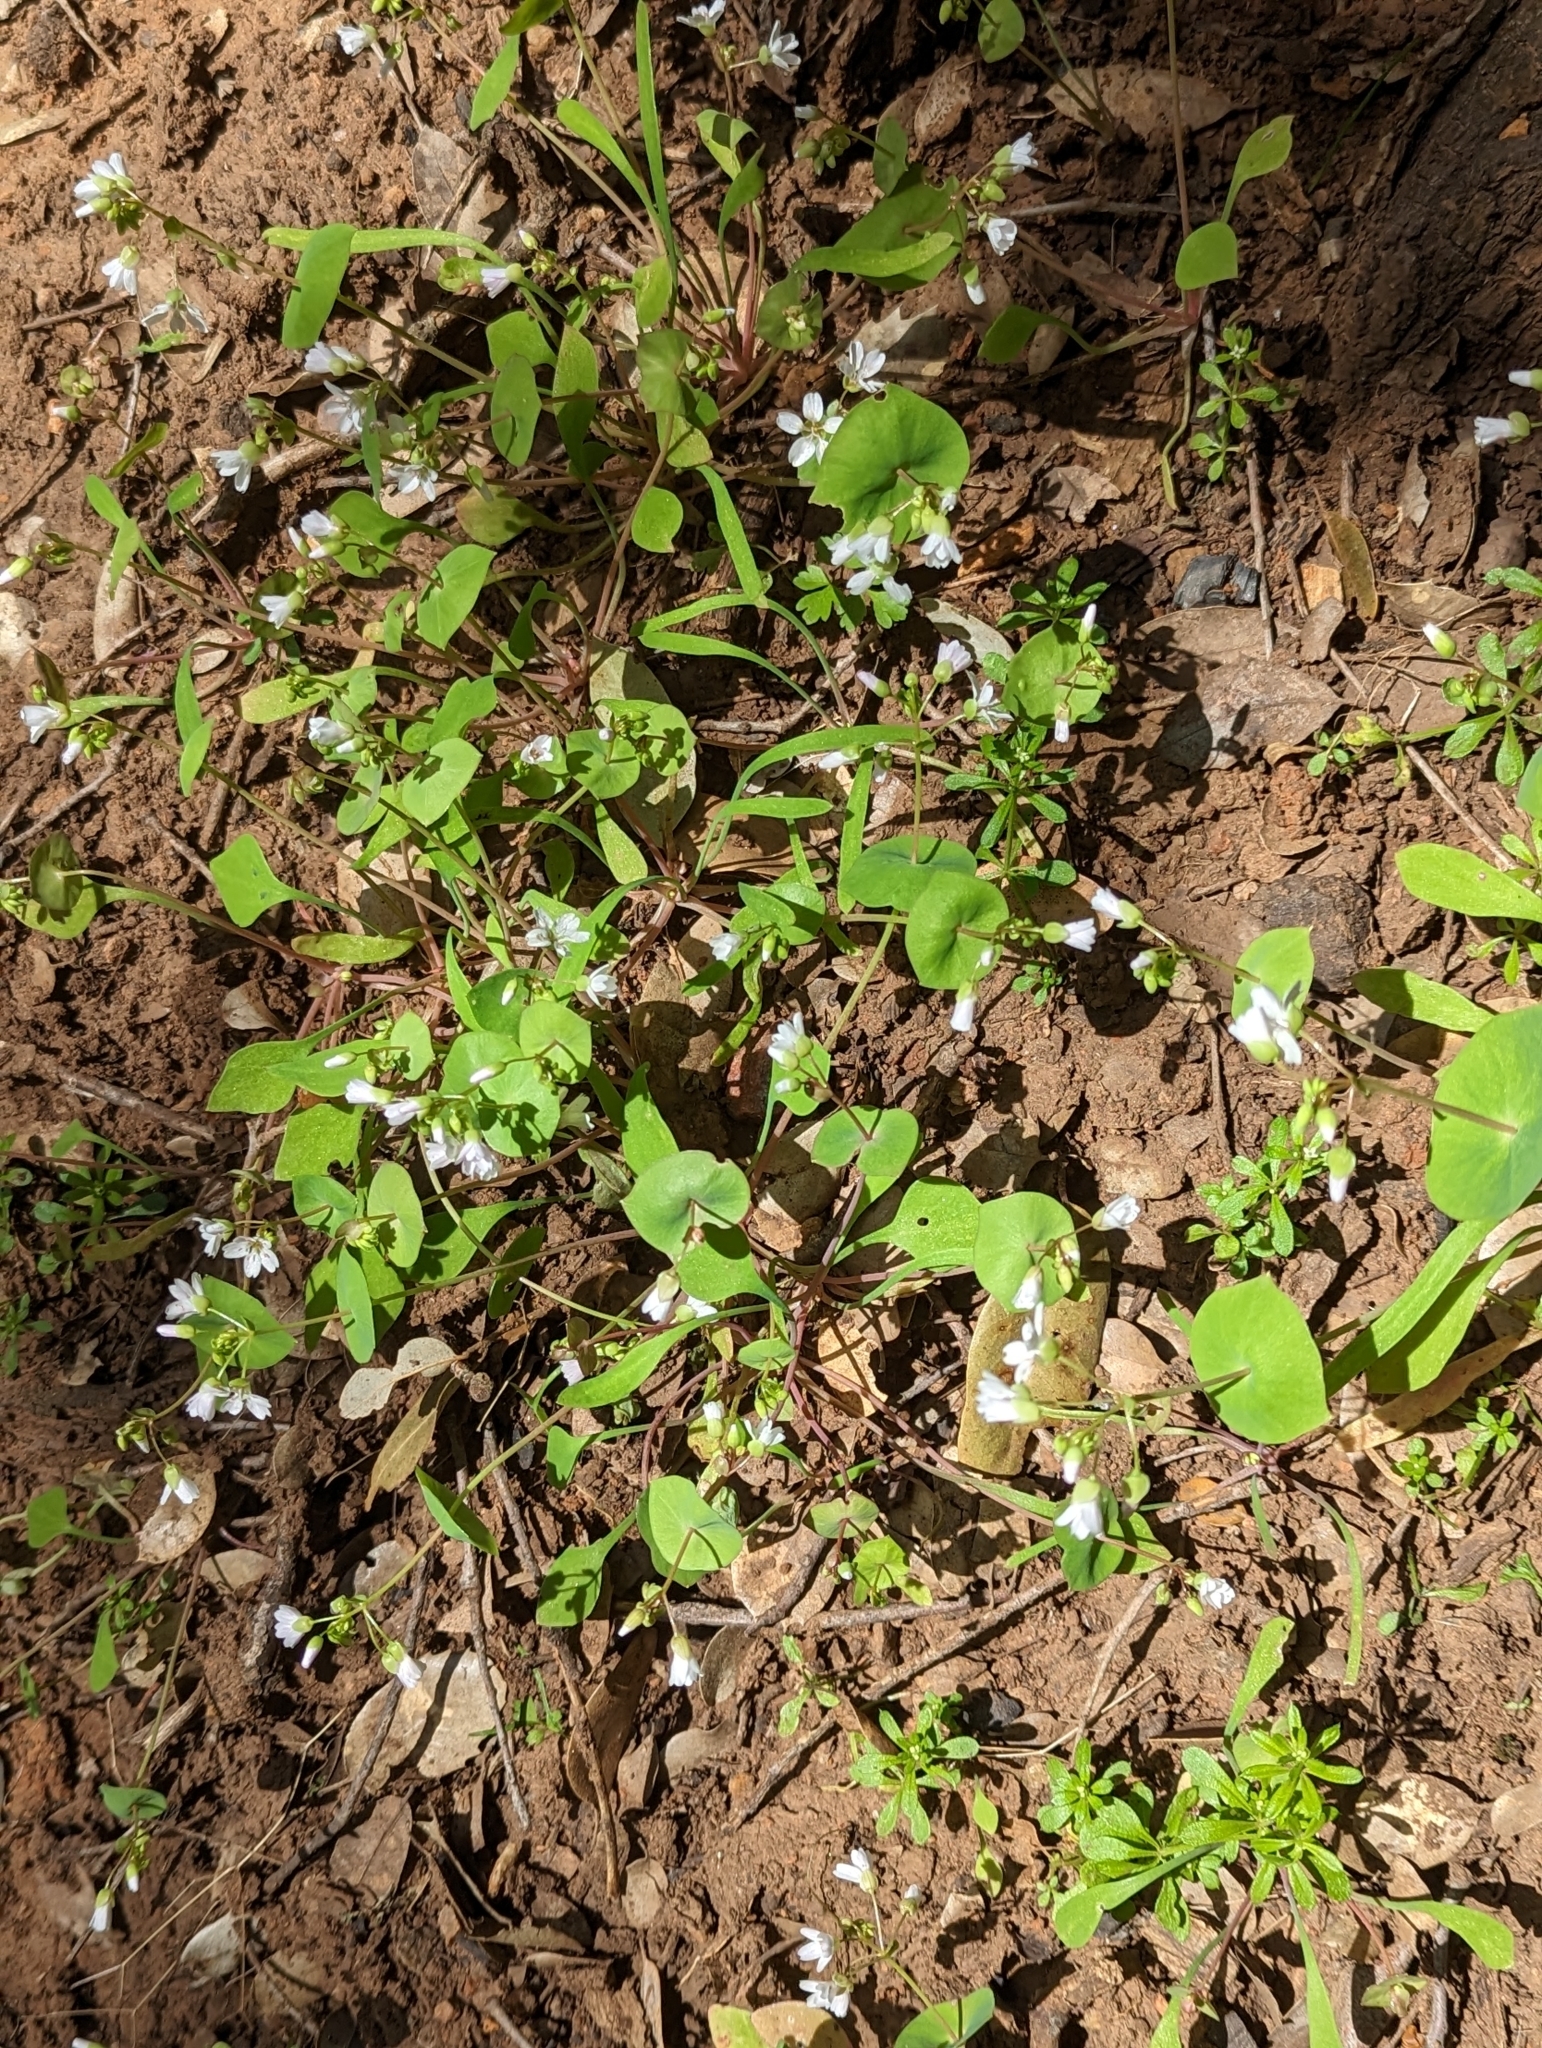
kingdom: Plantae
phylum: Tracheophyta
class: Magnoliopsida
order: Caryophyllales
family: Montiaceae
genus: Claytonia
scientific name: Claytonia perfoliata
